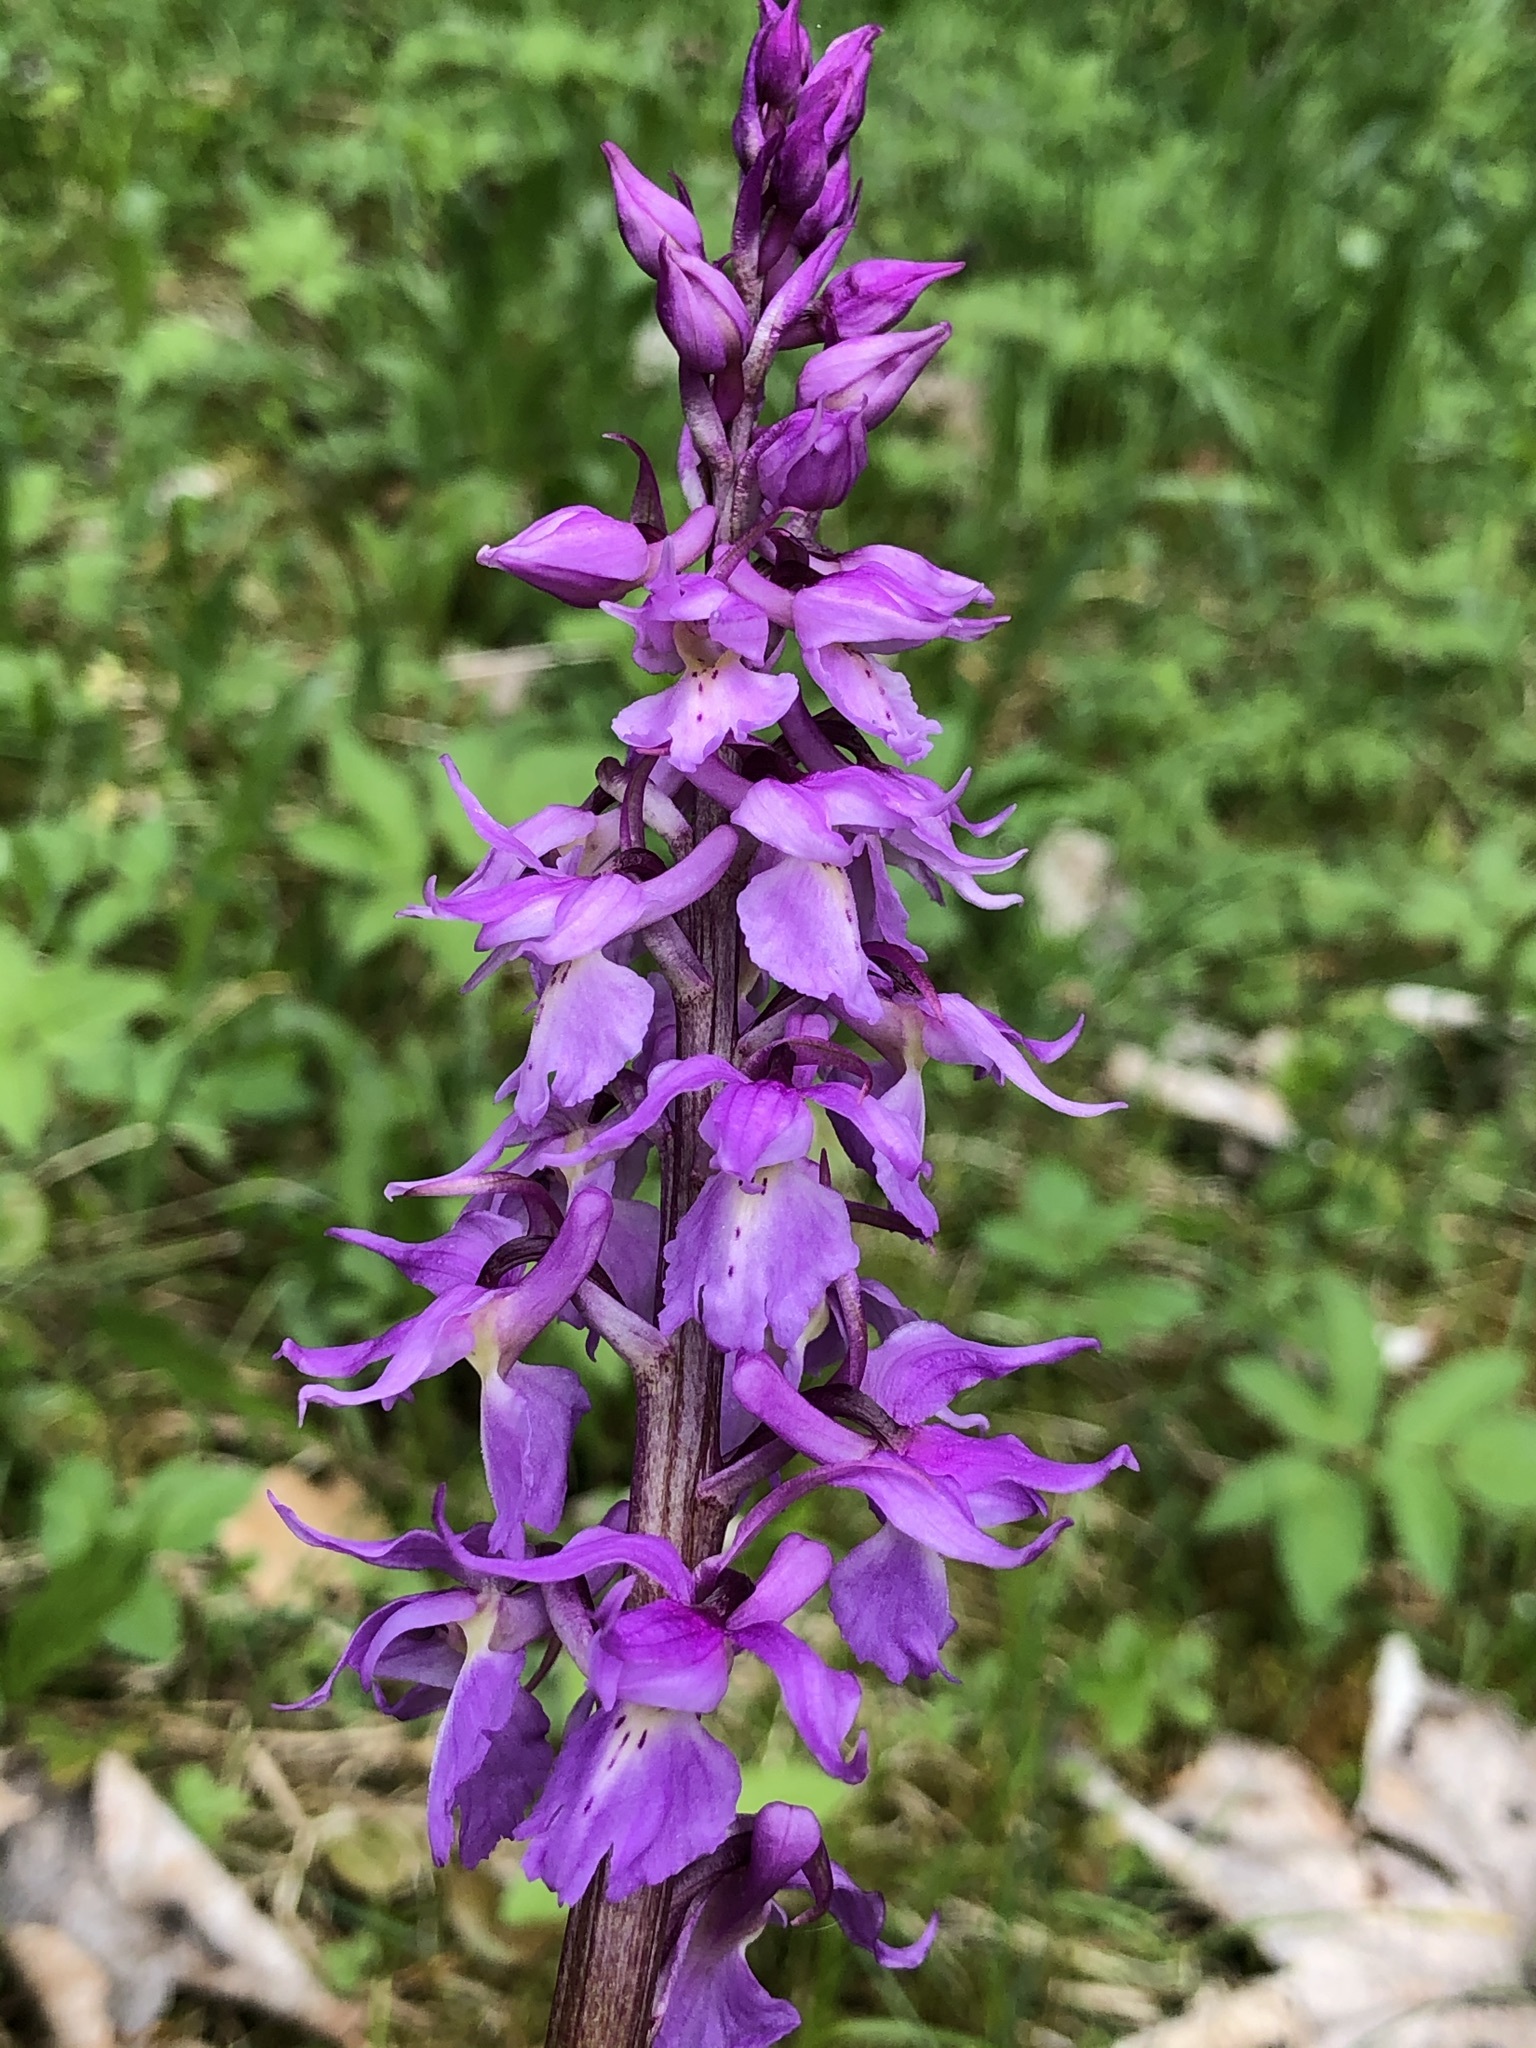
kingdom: Plantae
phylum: Tracheophyta
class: Liliopsida
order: Asparagales
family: Orchidaceae
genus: Orchis
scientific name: Orchis mascula
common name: Early-purple orchid
